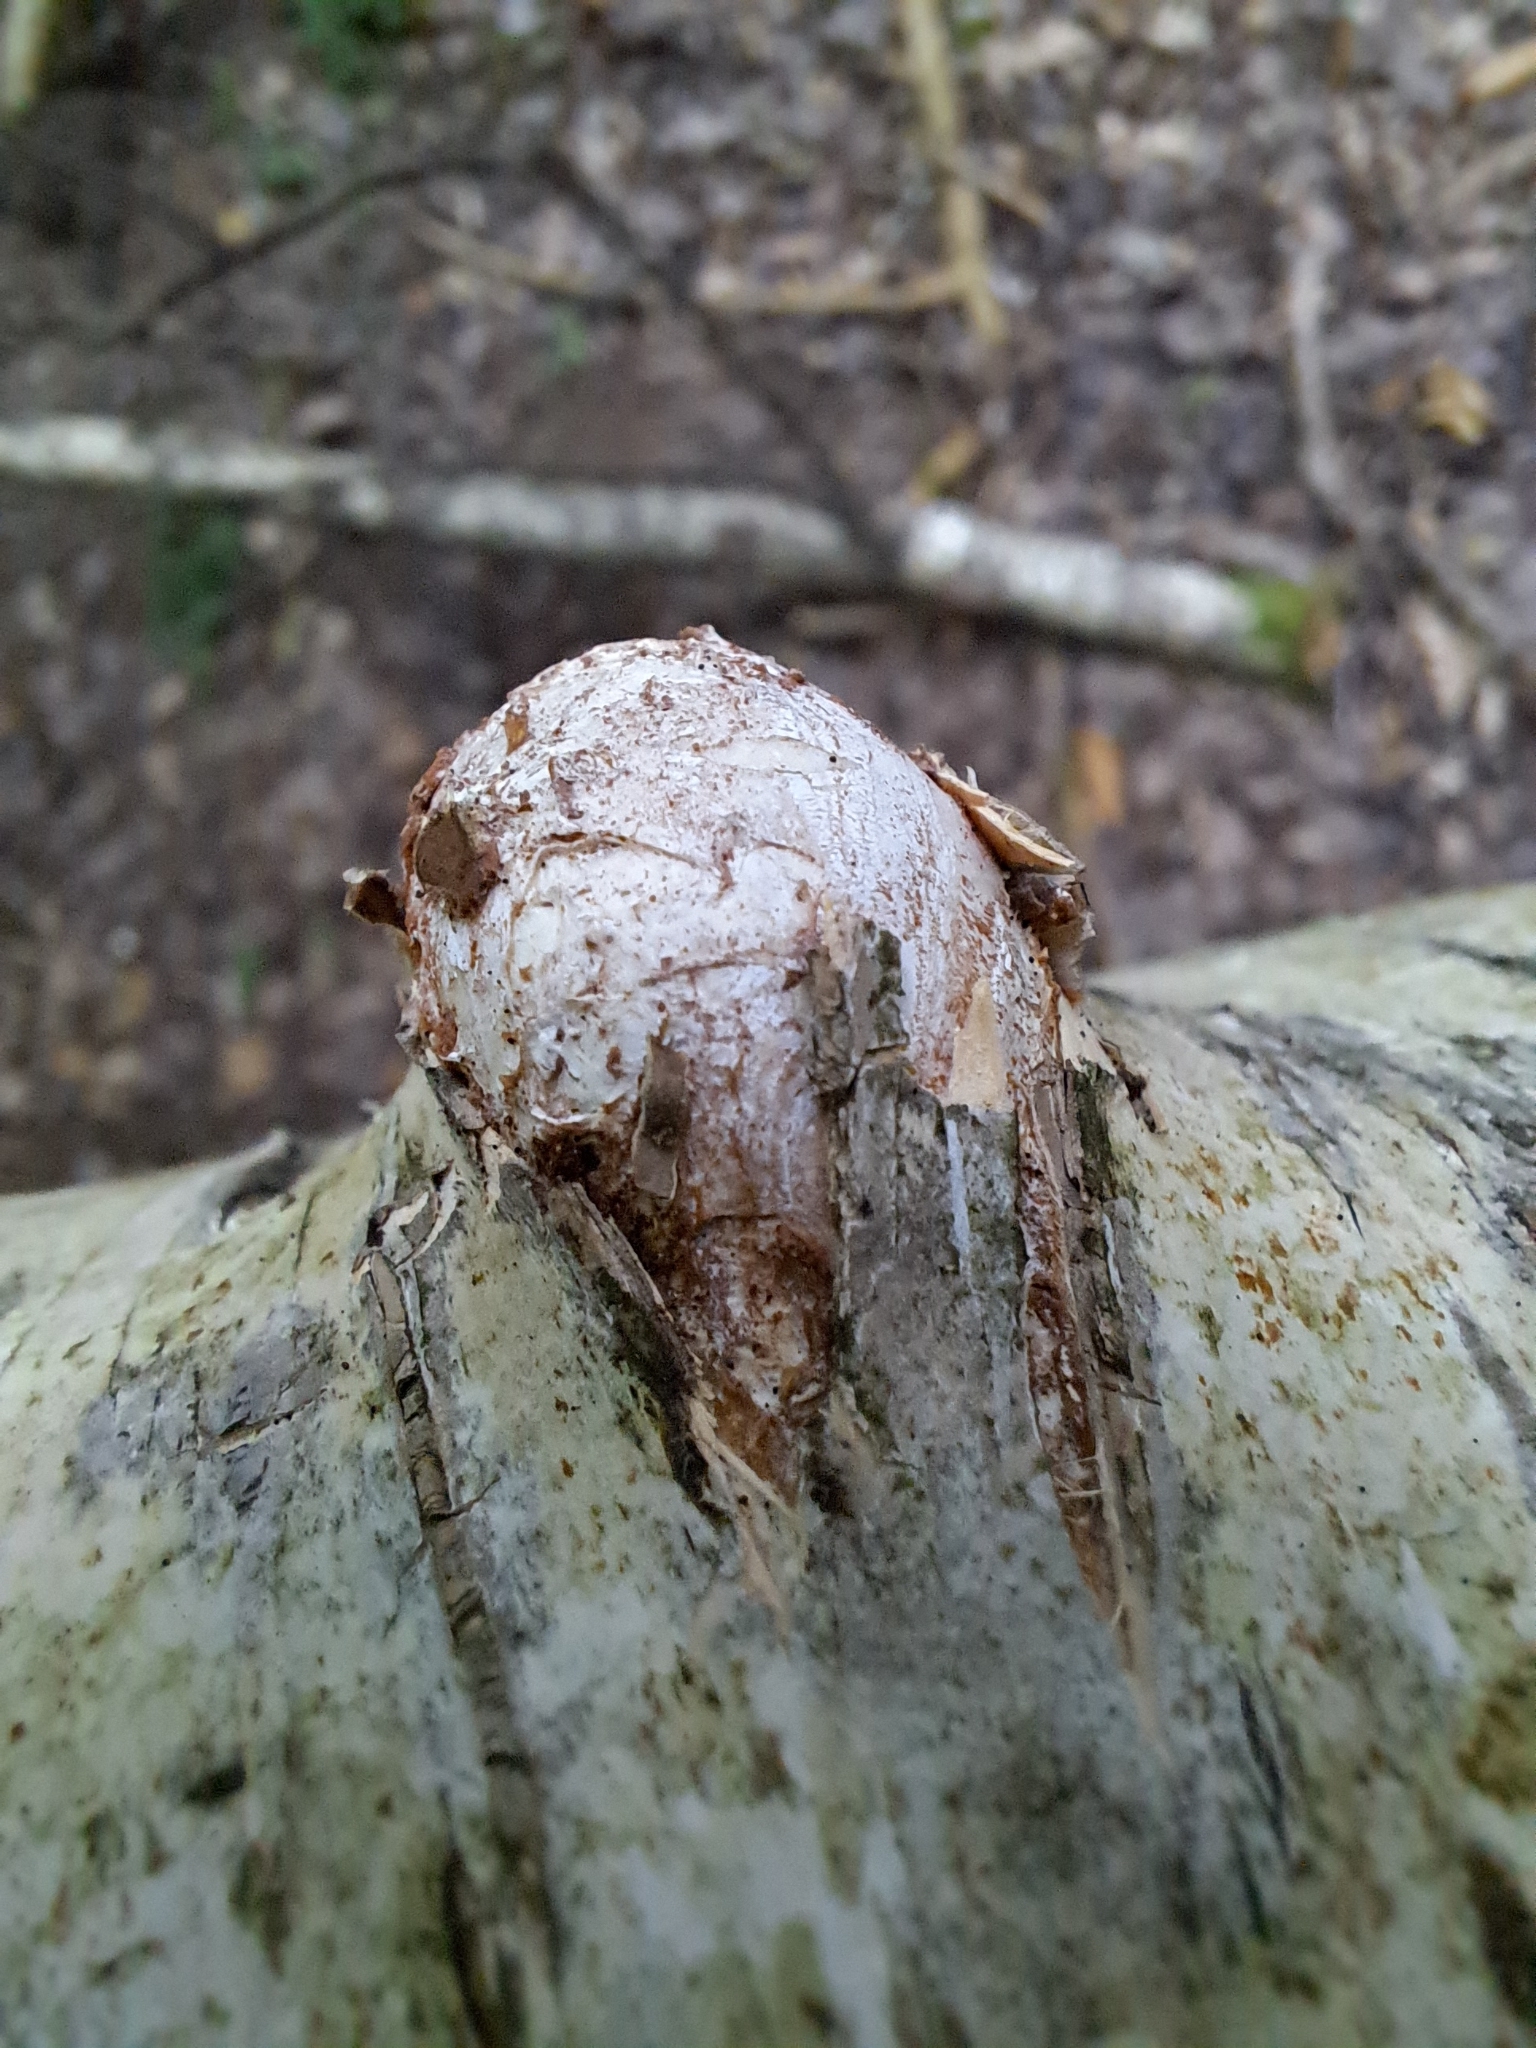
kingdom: Fungi
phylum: Basidiomycota
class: Agaricomycetes
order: Polyporales
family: Fomitopsidaceae
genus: Fomitopsis
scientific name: Fomitopsis betulina
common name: Birch polypore
